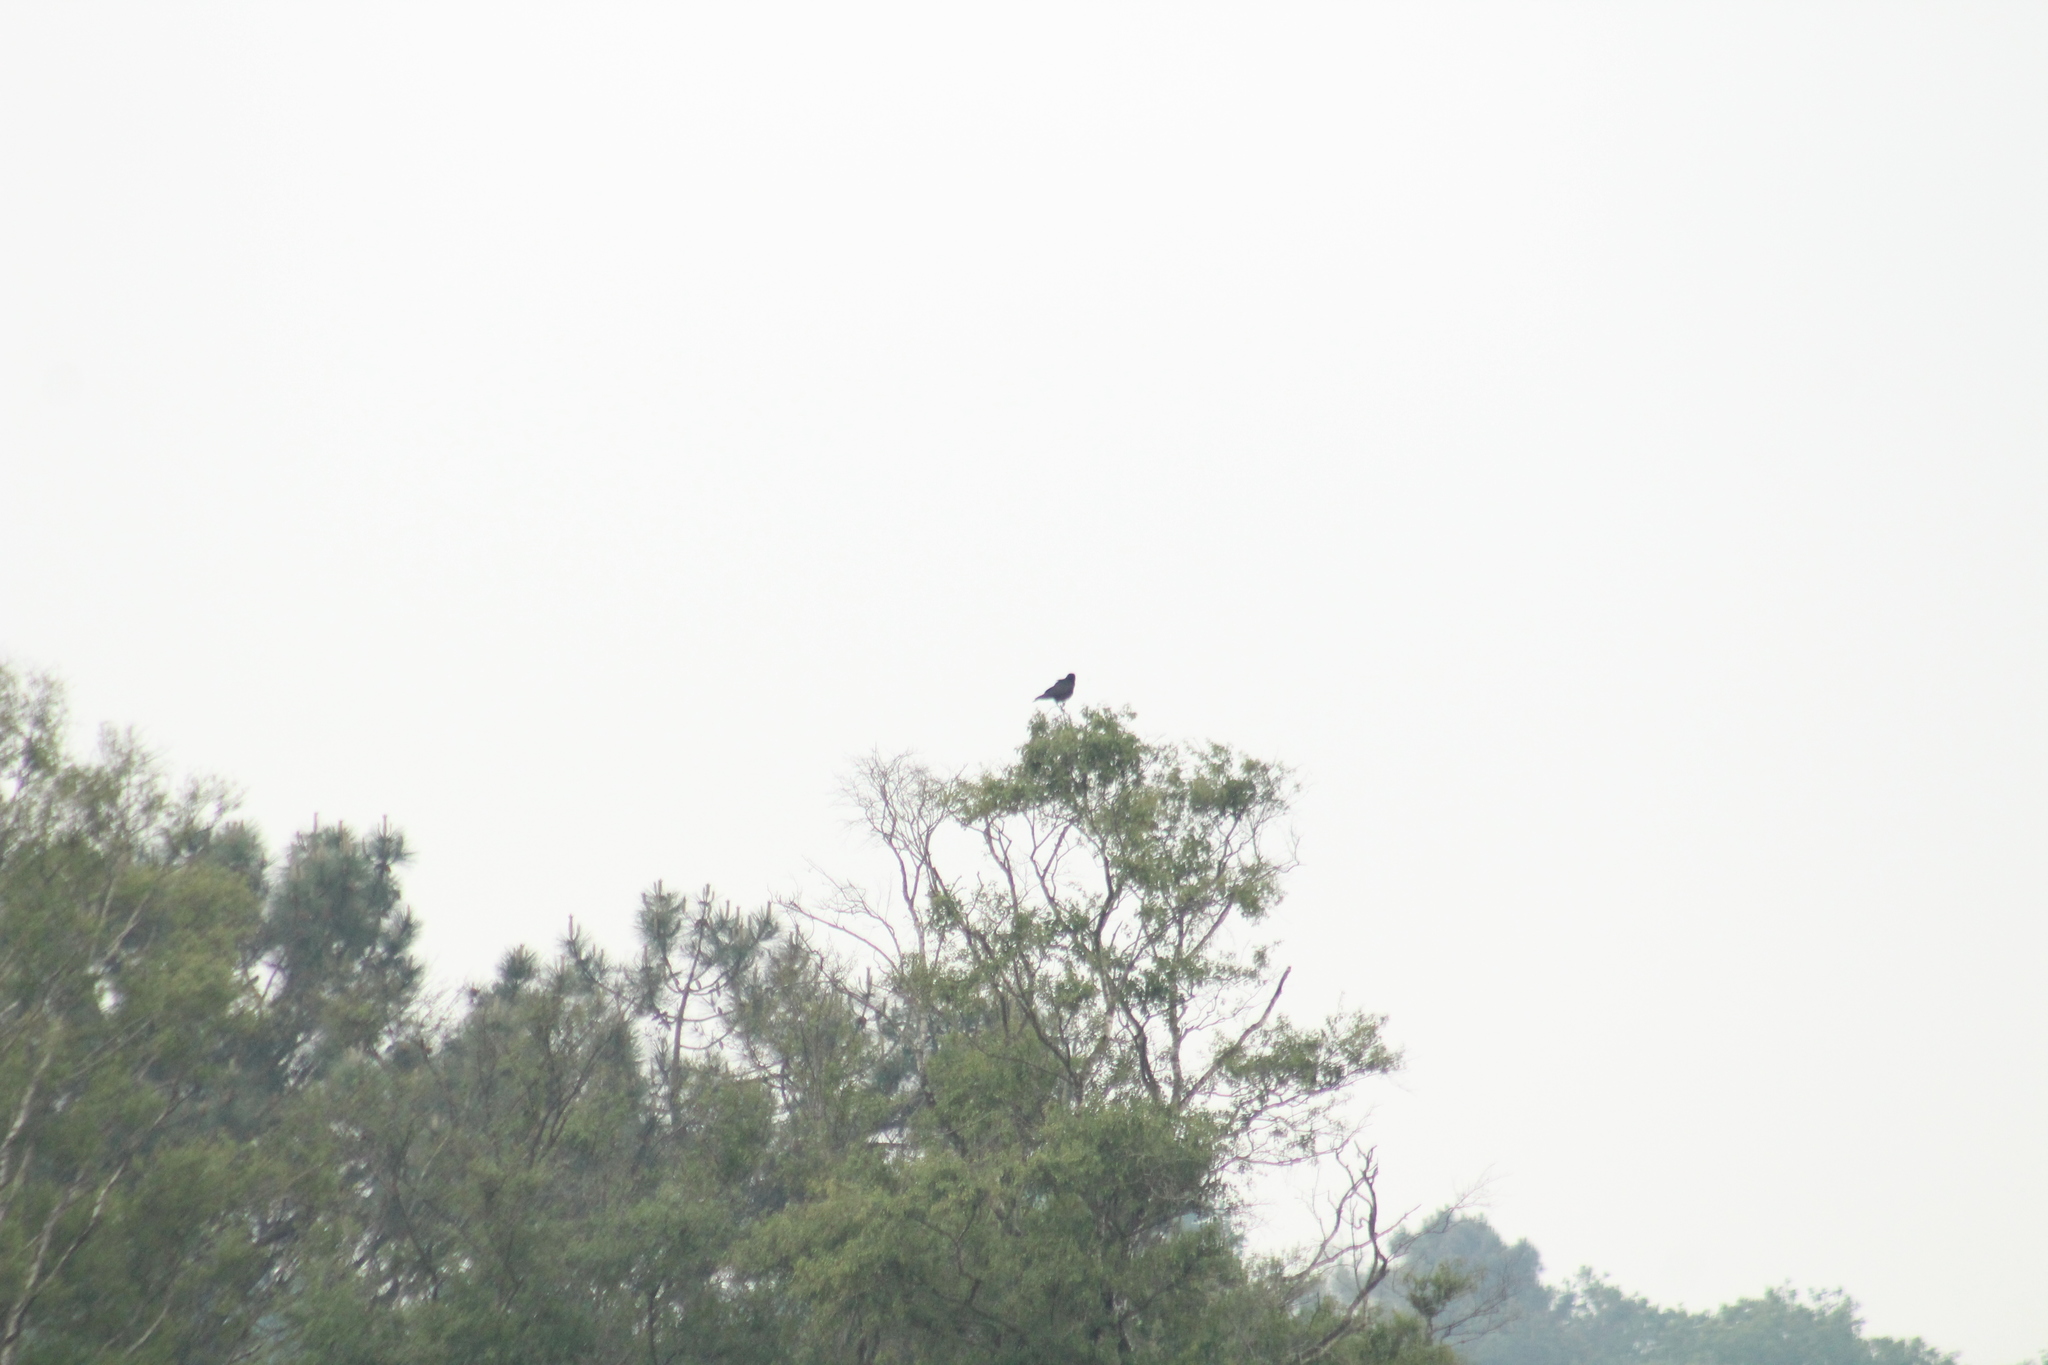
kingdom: Animalia
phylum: Chordata
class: Aves
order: Passeriformes
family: Corvidae
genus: Corvus
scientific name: Corvus corone
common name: Carrion crow
